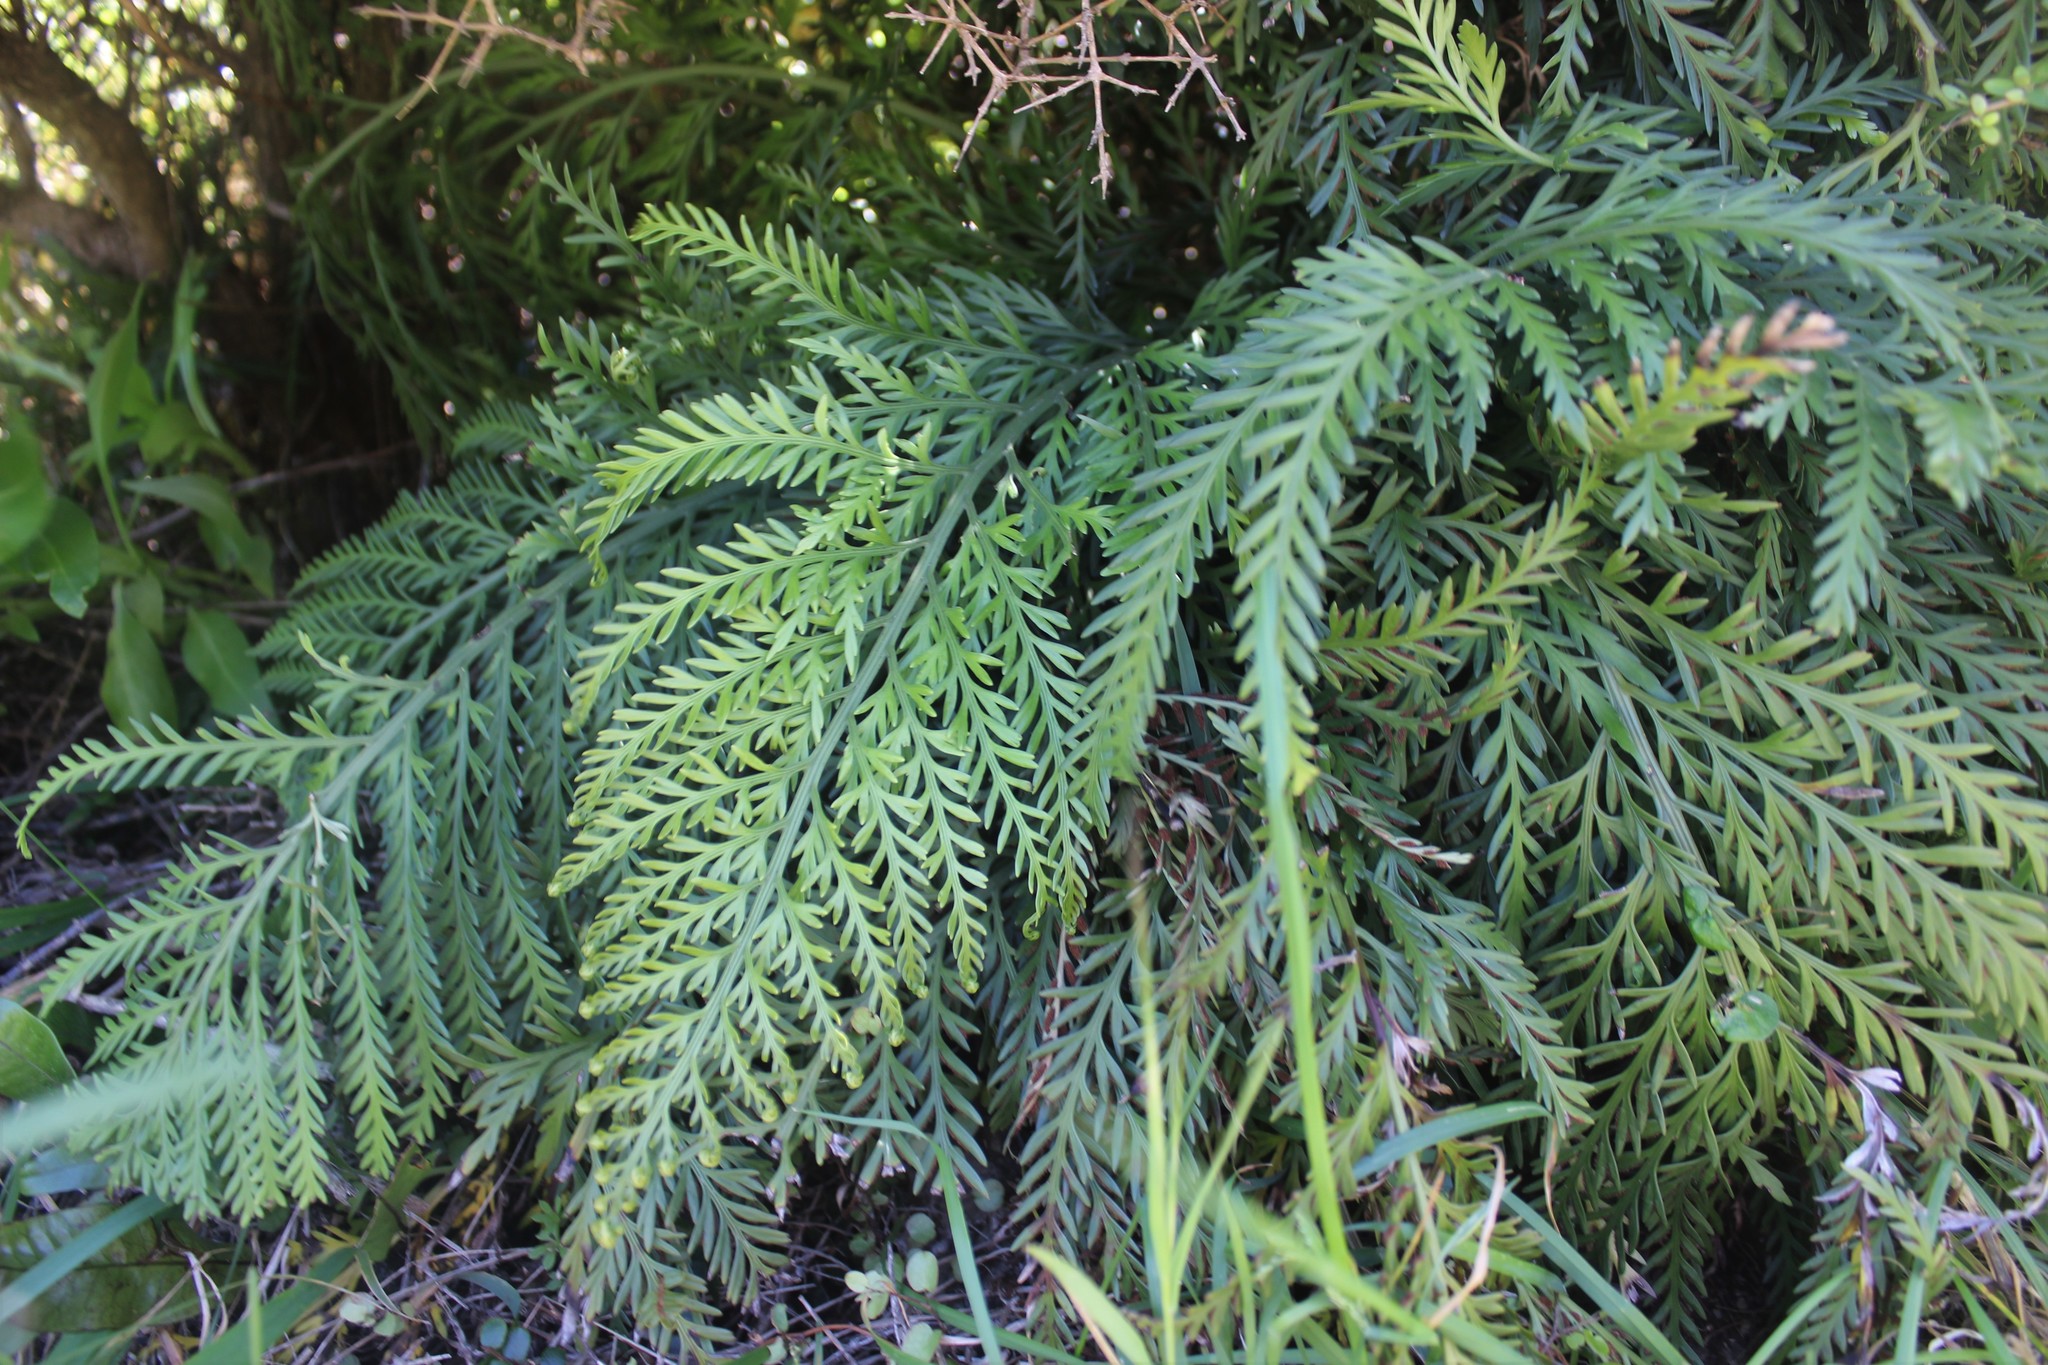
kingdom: Plantae
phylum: Tracheophyta
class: Polypodiopsida
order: Polypodiales
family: Aspleniaceae
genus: Asplenium
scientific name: Asplenium appendiculatum
